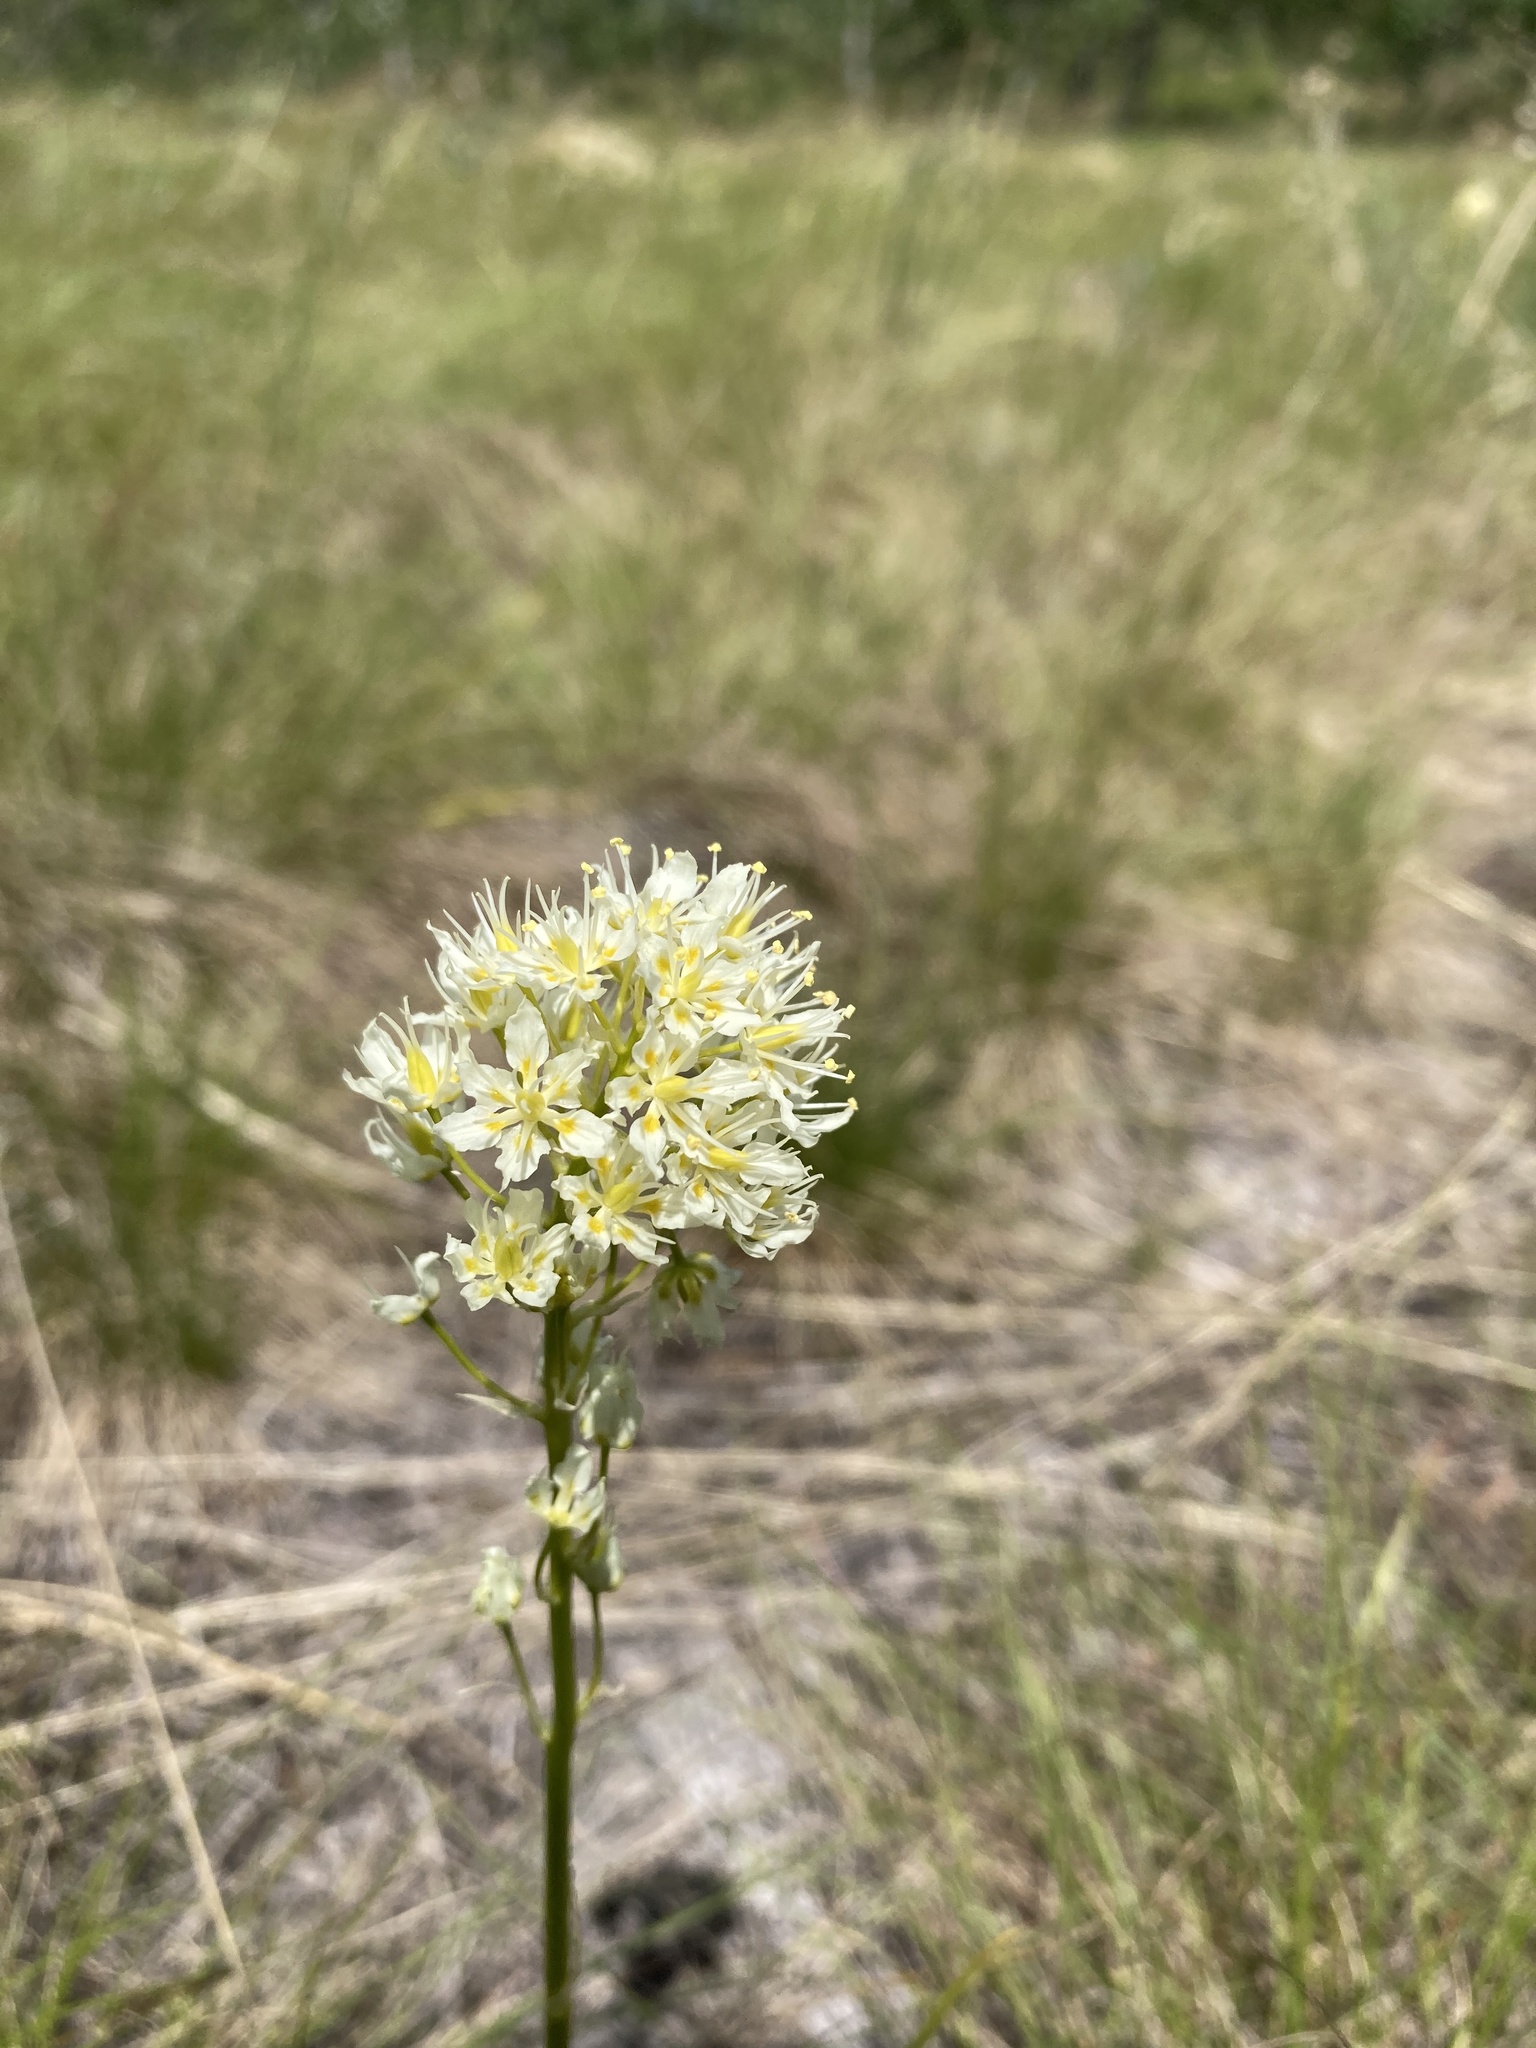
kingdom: Plantae
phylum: Tracheophyta
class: Liliopsida
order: Liliales
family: Melanthiaceae
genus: Toxicoscordion
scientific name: Toxicoscordion venenosum
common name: Meadow death camas
